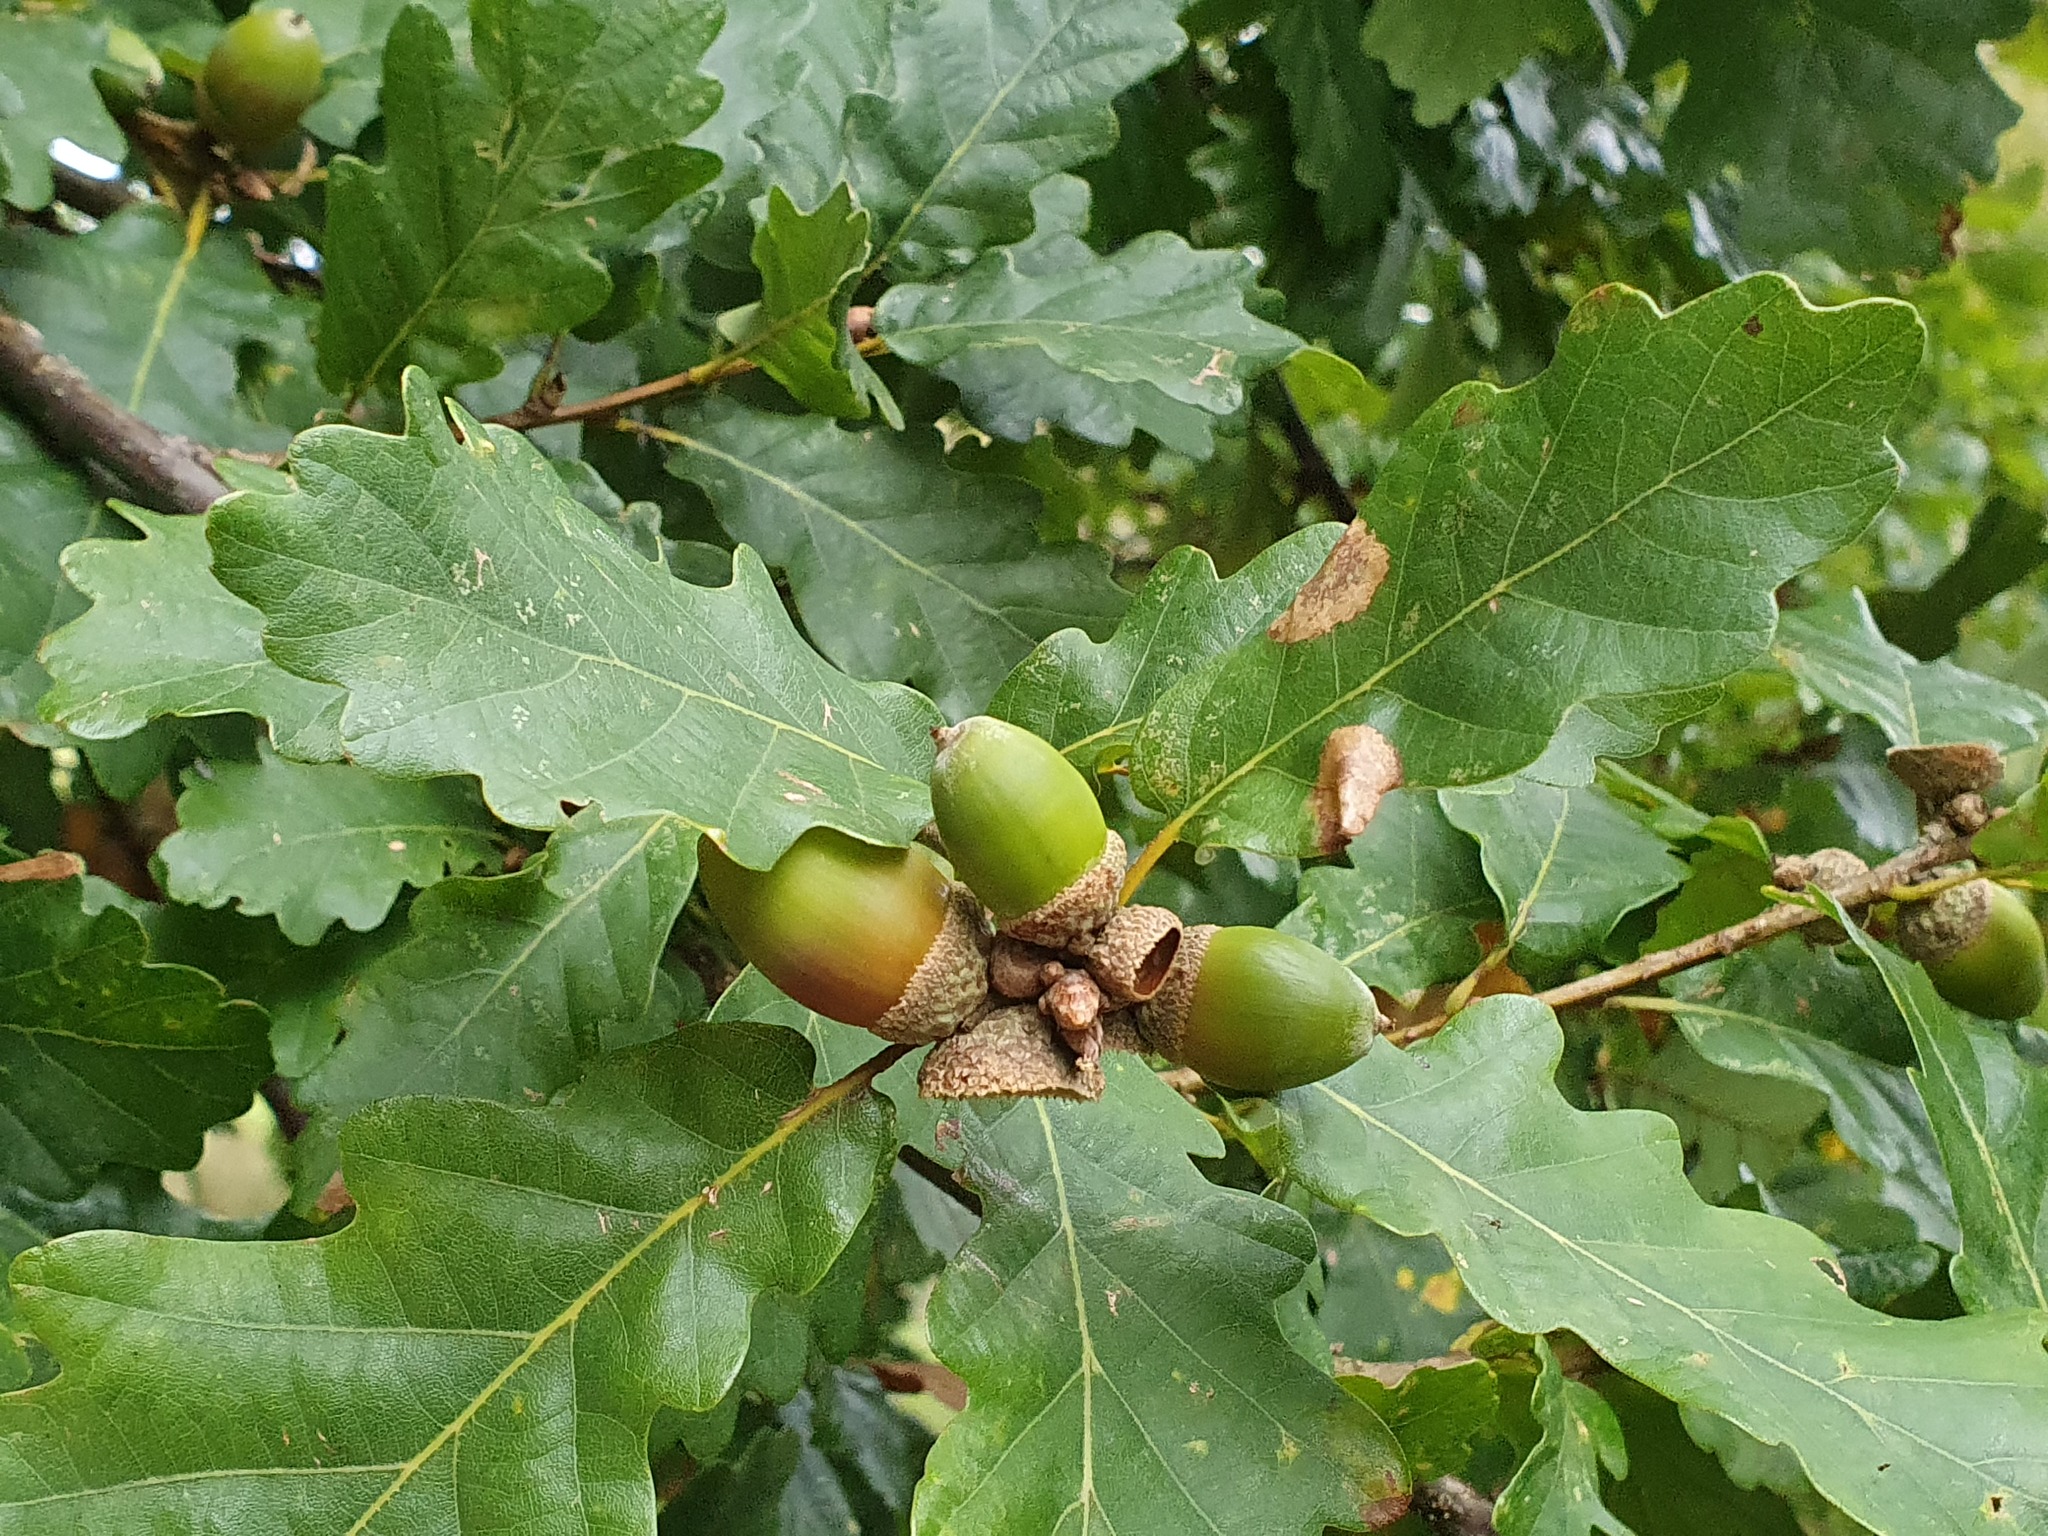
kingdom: Plantae
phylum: Tracheophyta
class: Magnoliopsida
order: Fagales
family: Fagaceae
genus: Quercus
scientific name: Quercus petraea
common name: Sessile oak
